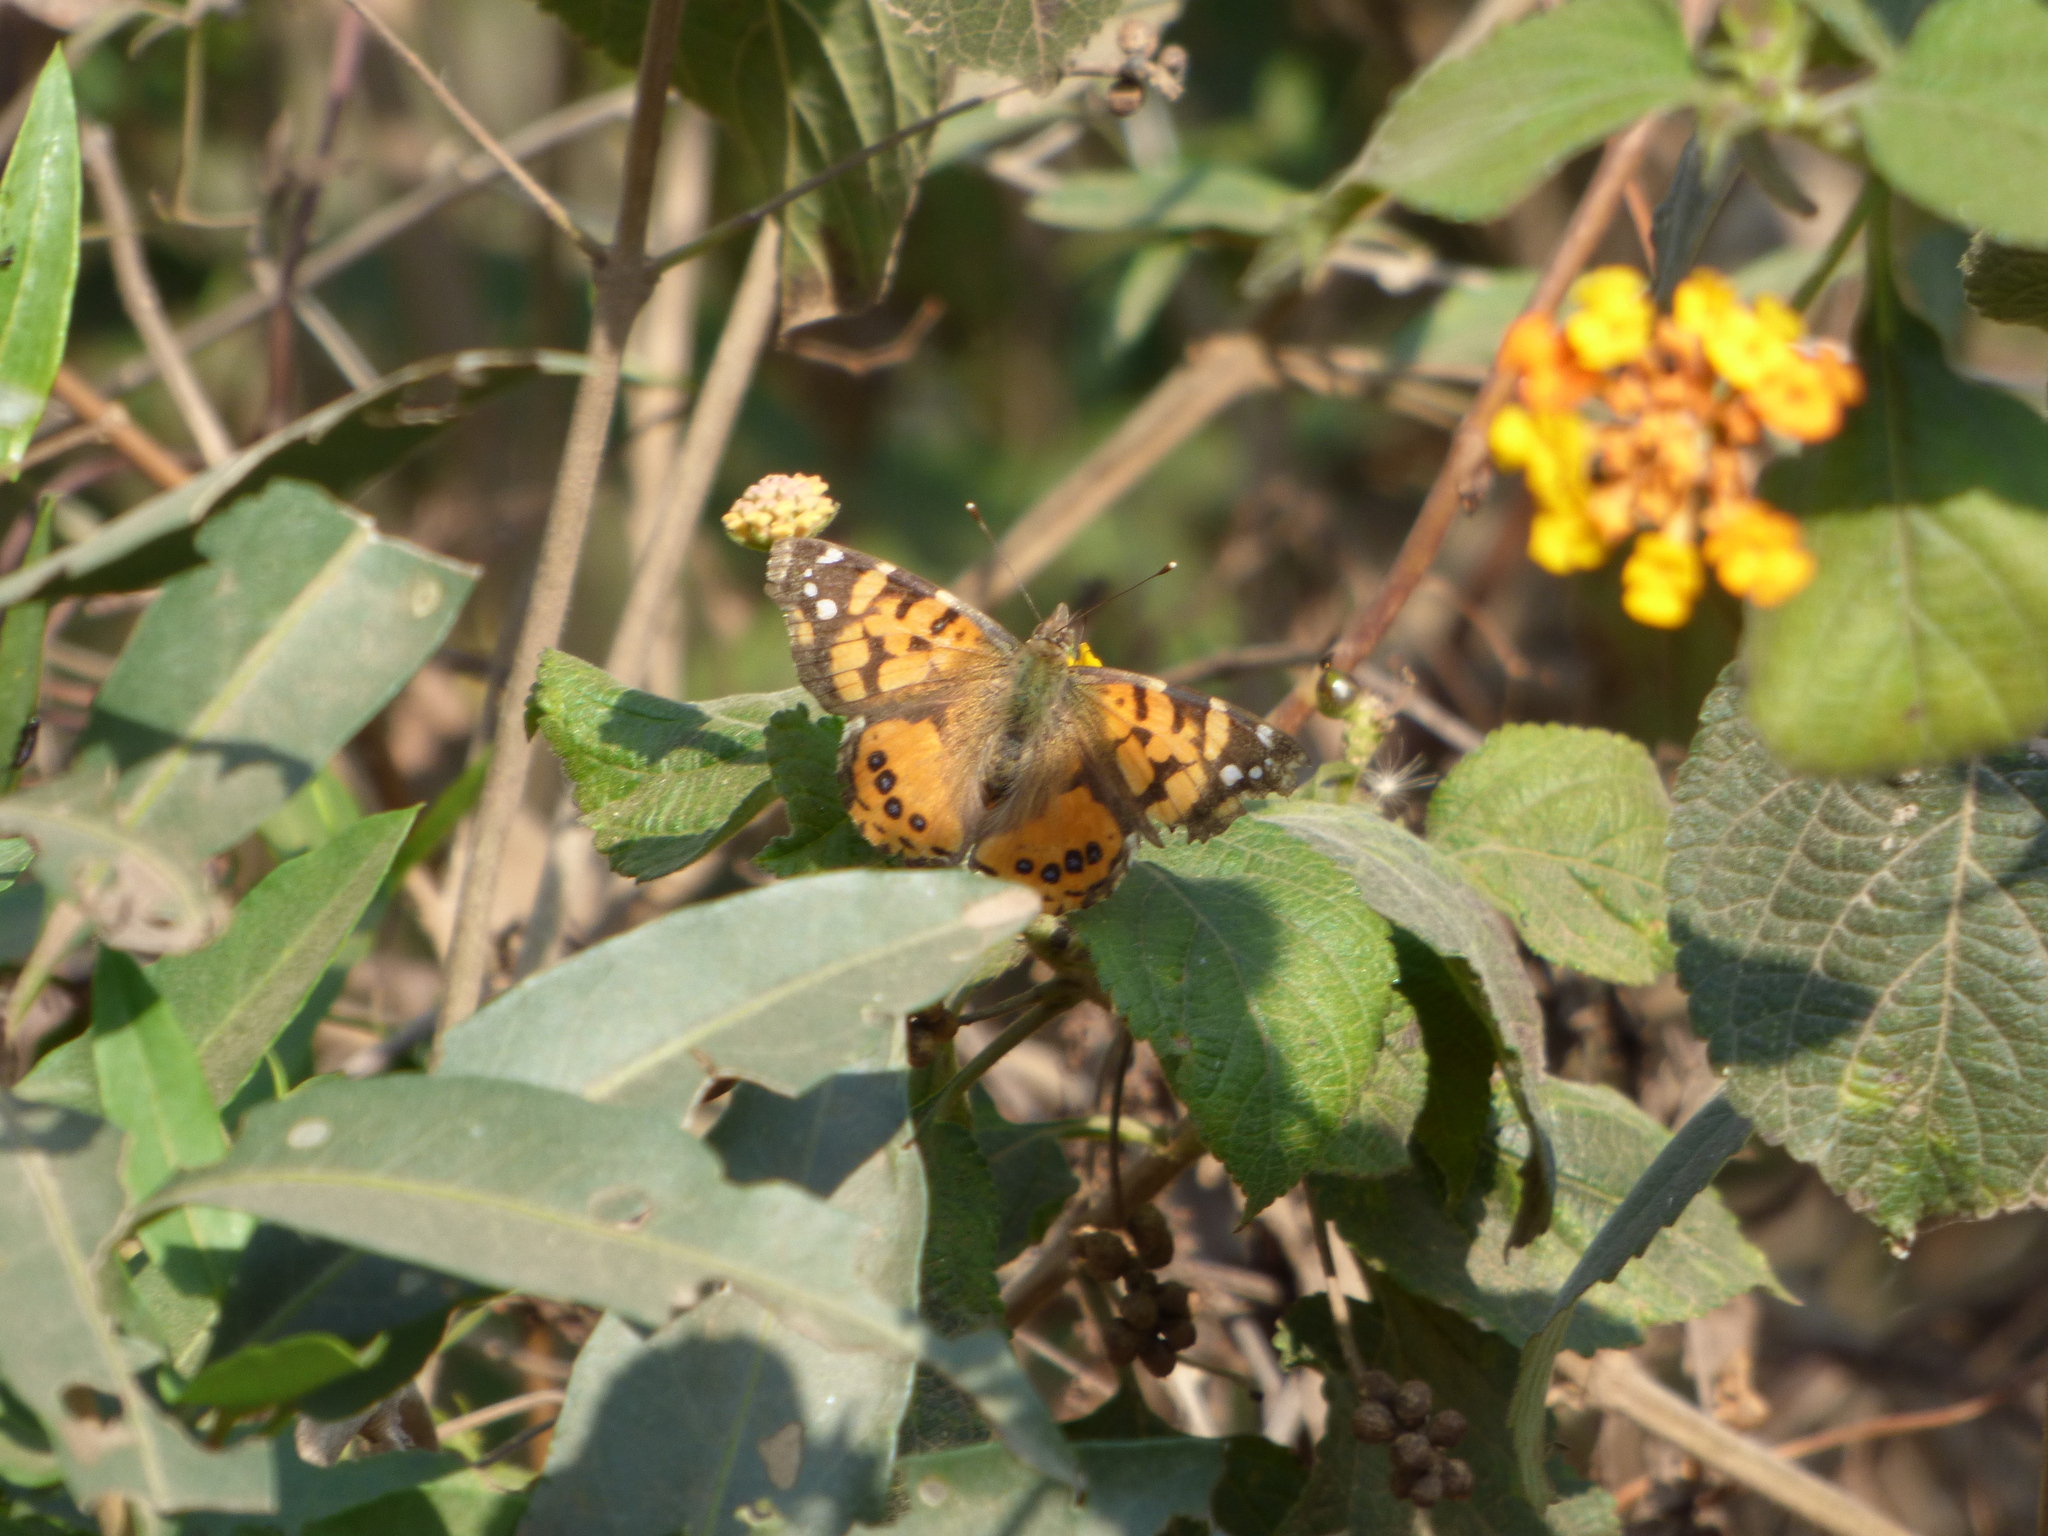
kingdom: Animalia
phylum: Arthropoda
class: Insecta
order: Lepidoptera
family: Nymphalidae
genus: Vanessa
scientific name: Vanessa carye
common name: Subtropical lady
